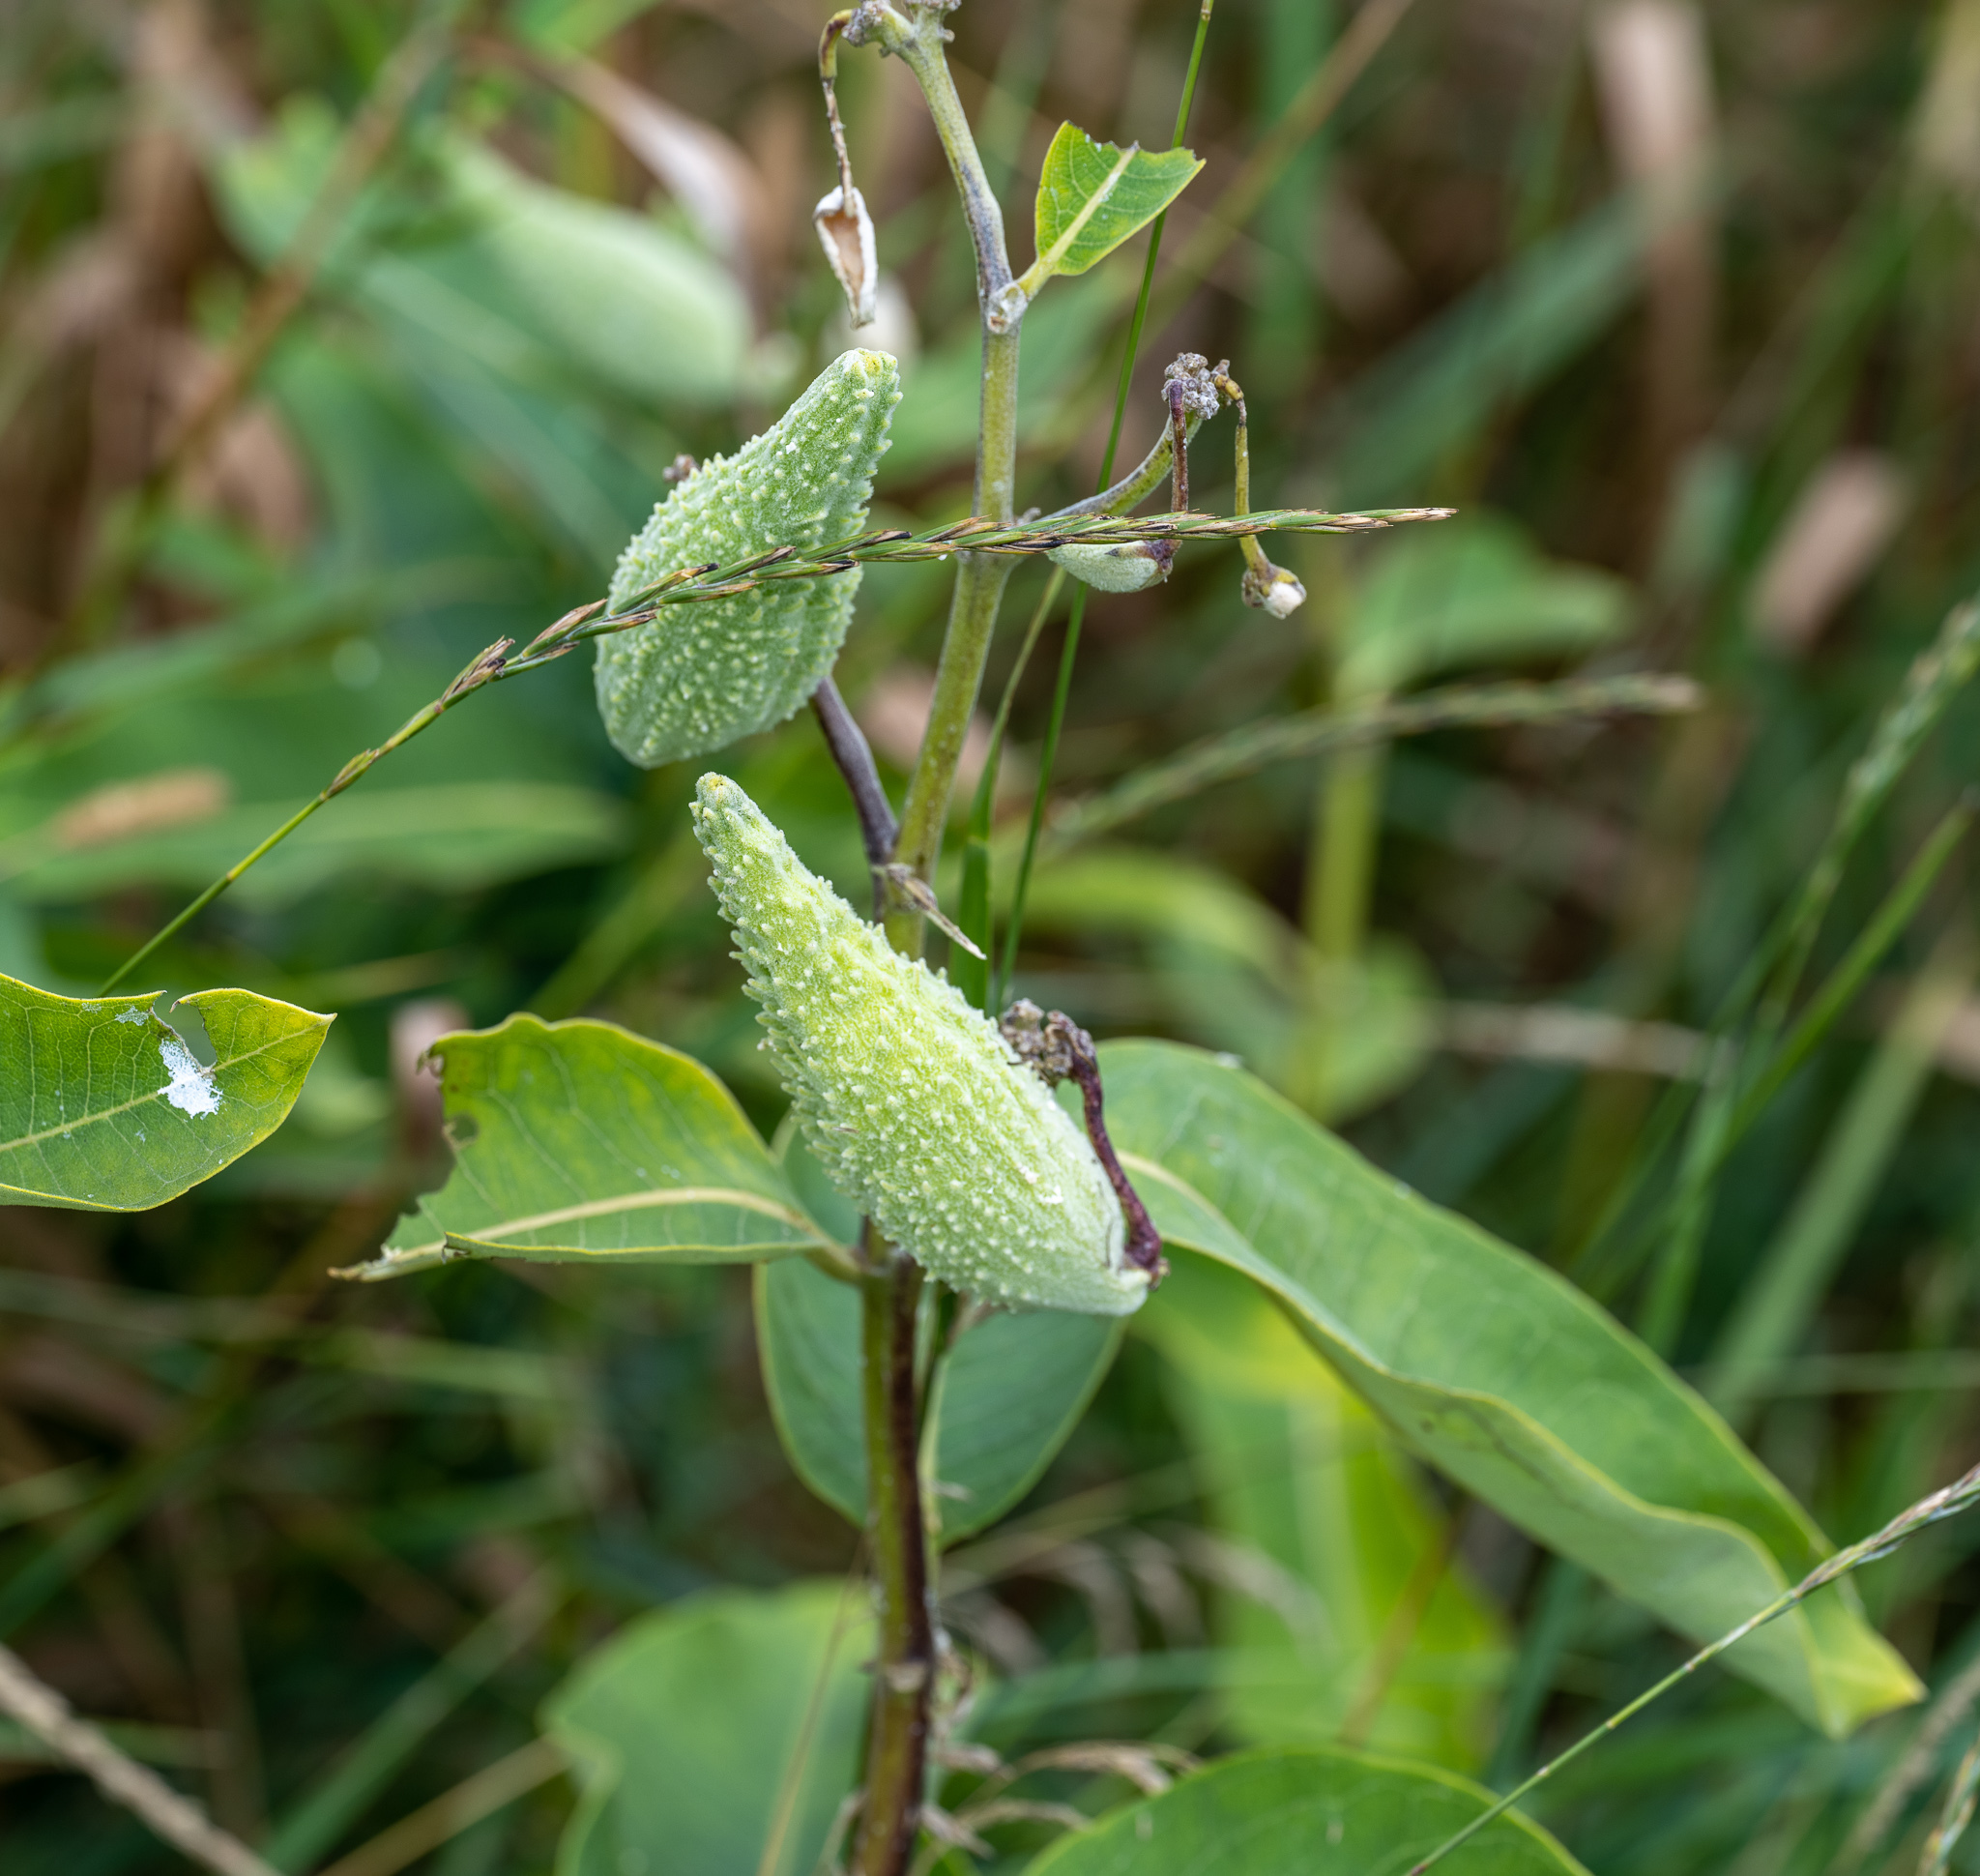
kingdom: Plantae
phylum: Tracheophyta
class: Magnoliopsida
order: Gentianales
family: Apocynaceae
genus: Asclepias
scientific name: Asclepias syriaca
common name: Common milkweed
